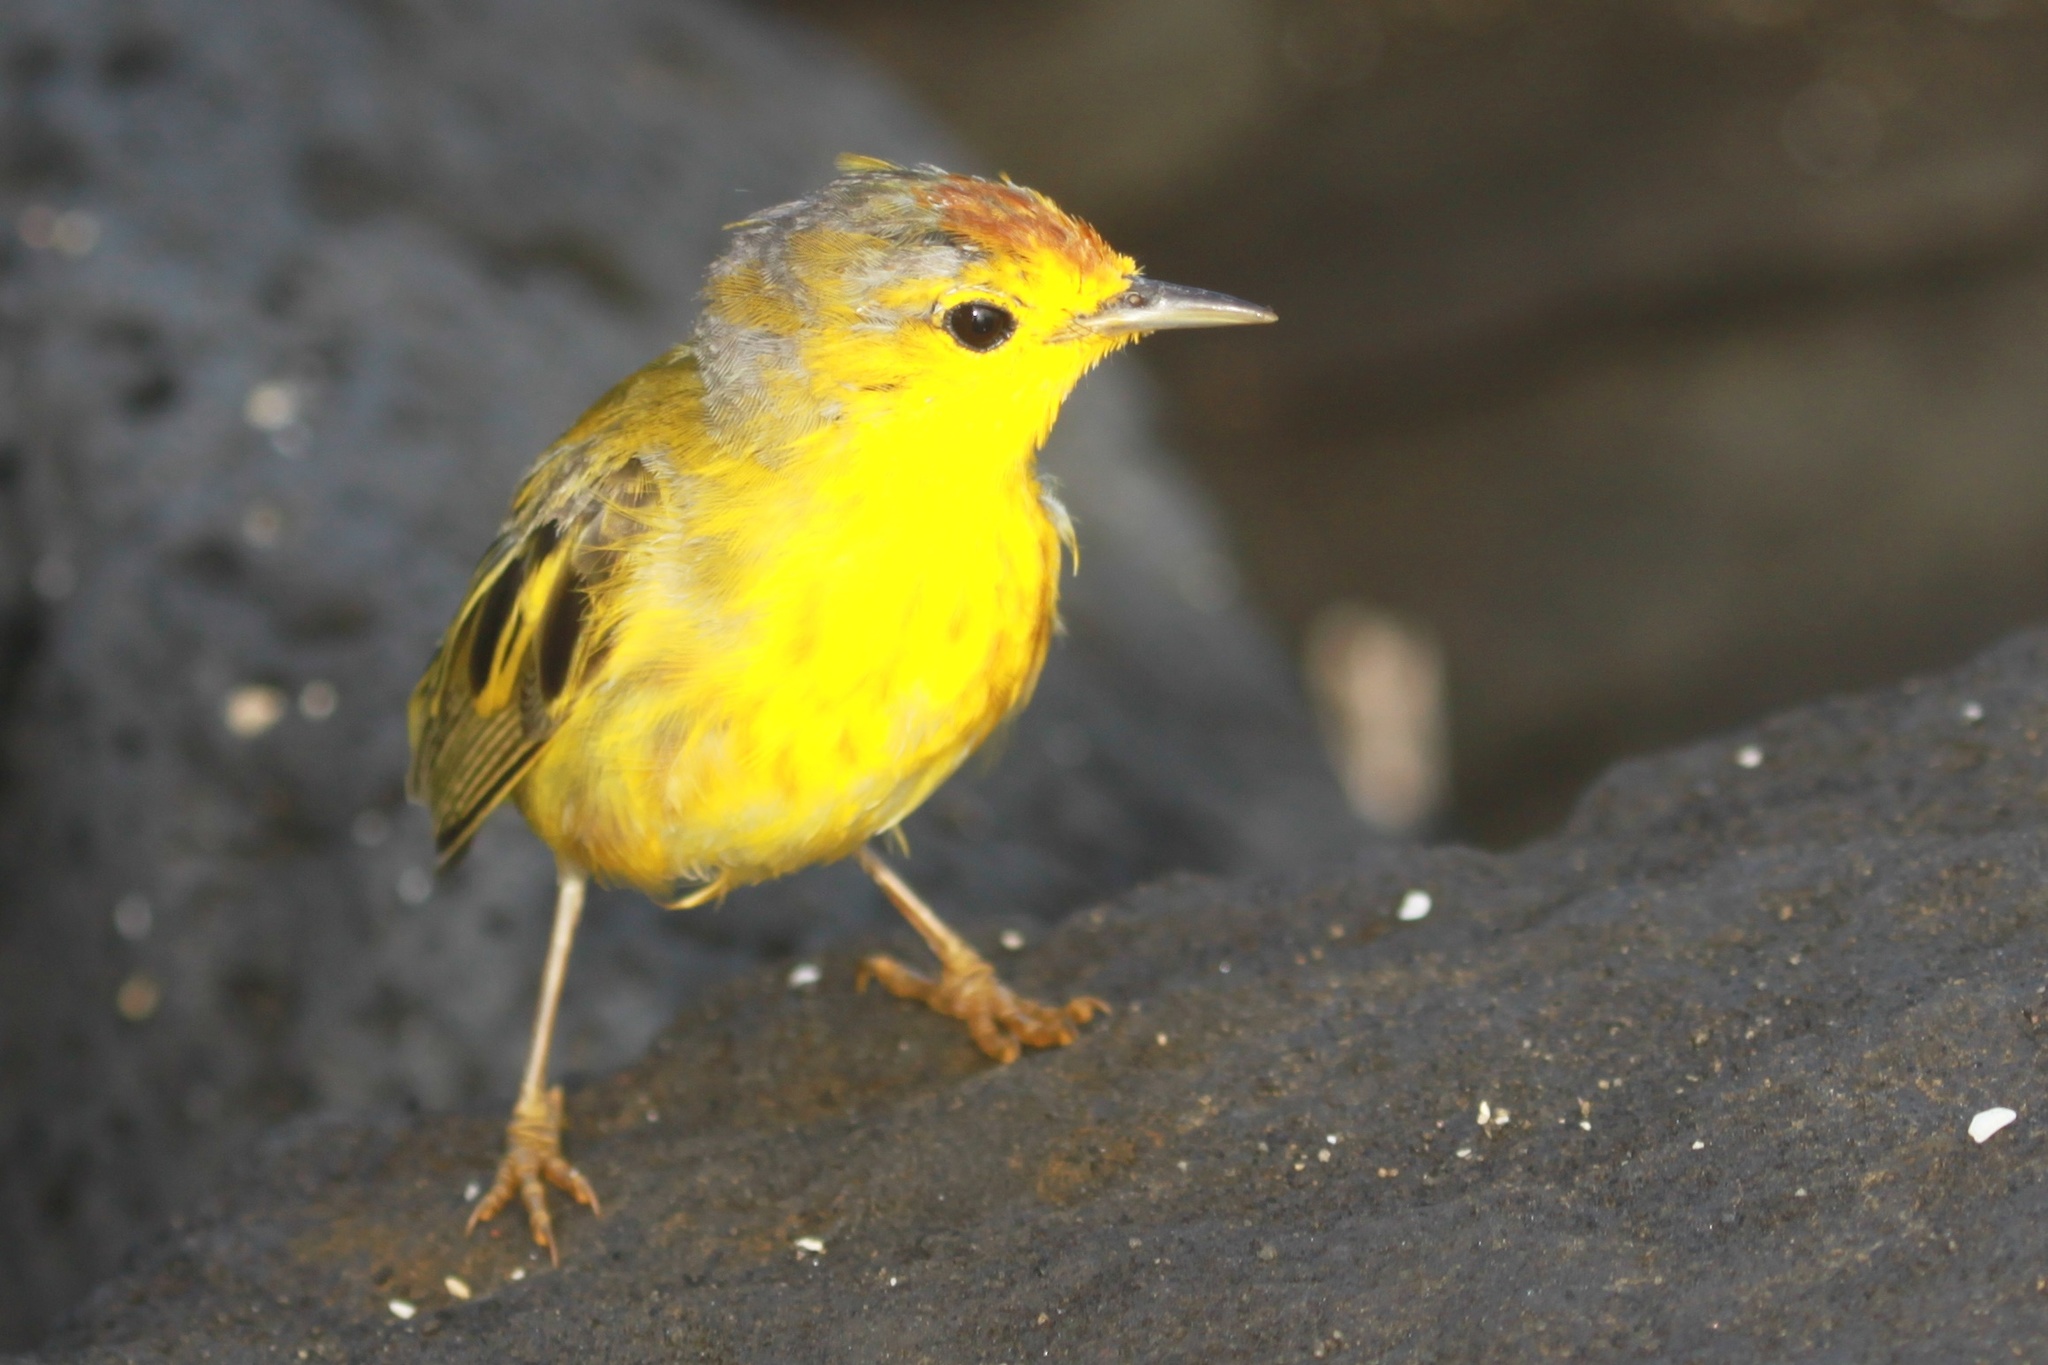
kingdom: Animalia
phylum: Chordata
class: Aves
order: Passeriformes
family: Parulidae
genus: Setophaga
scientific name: Setophaga petechia
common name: Yellow warbler
